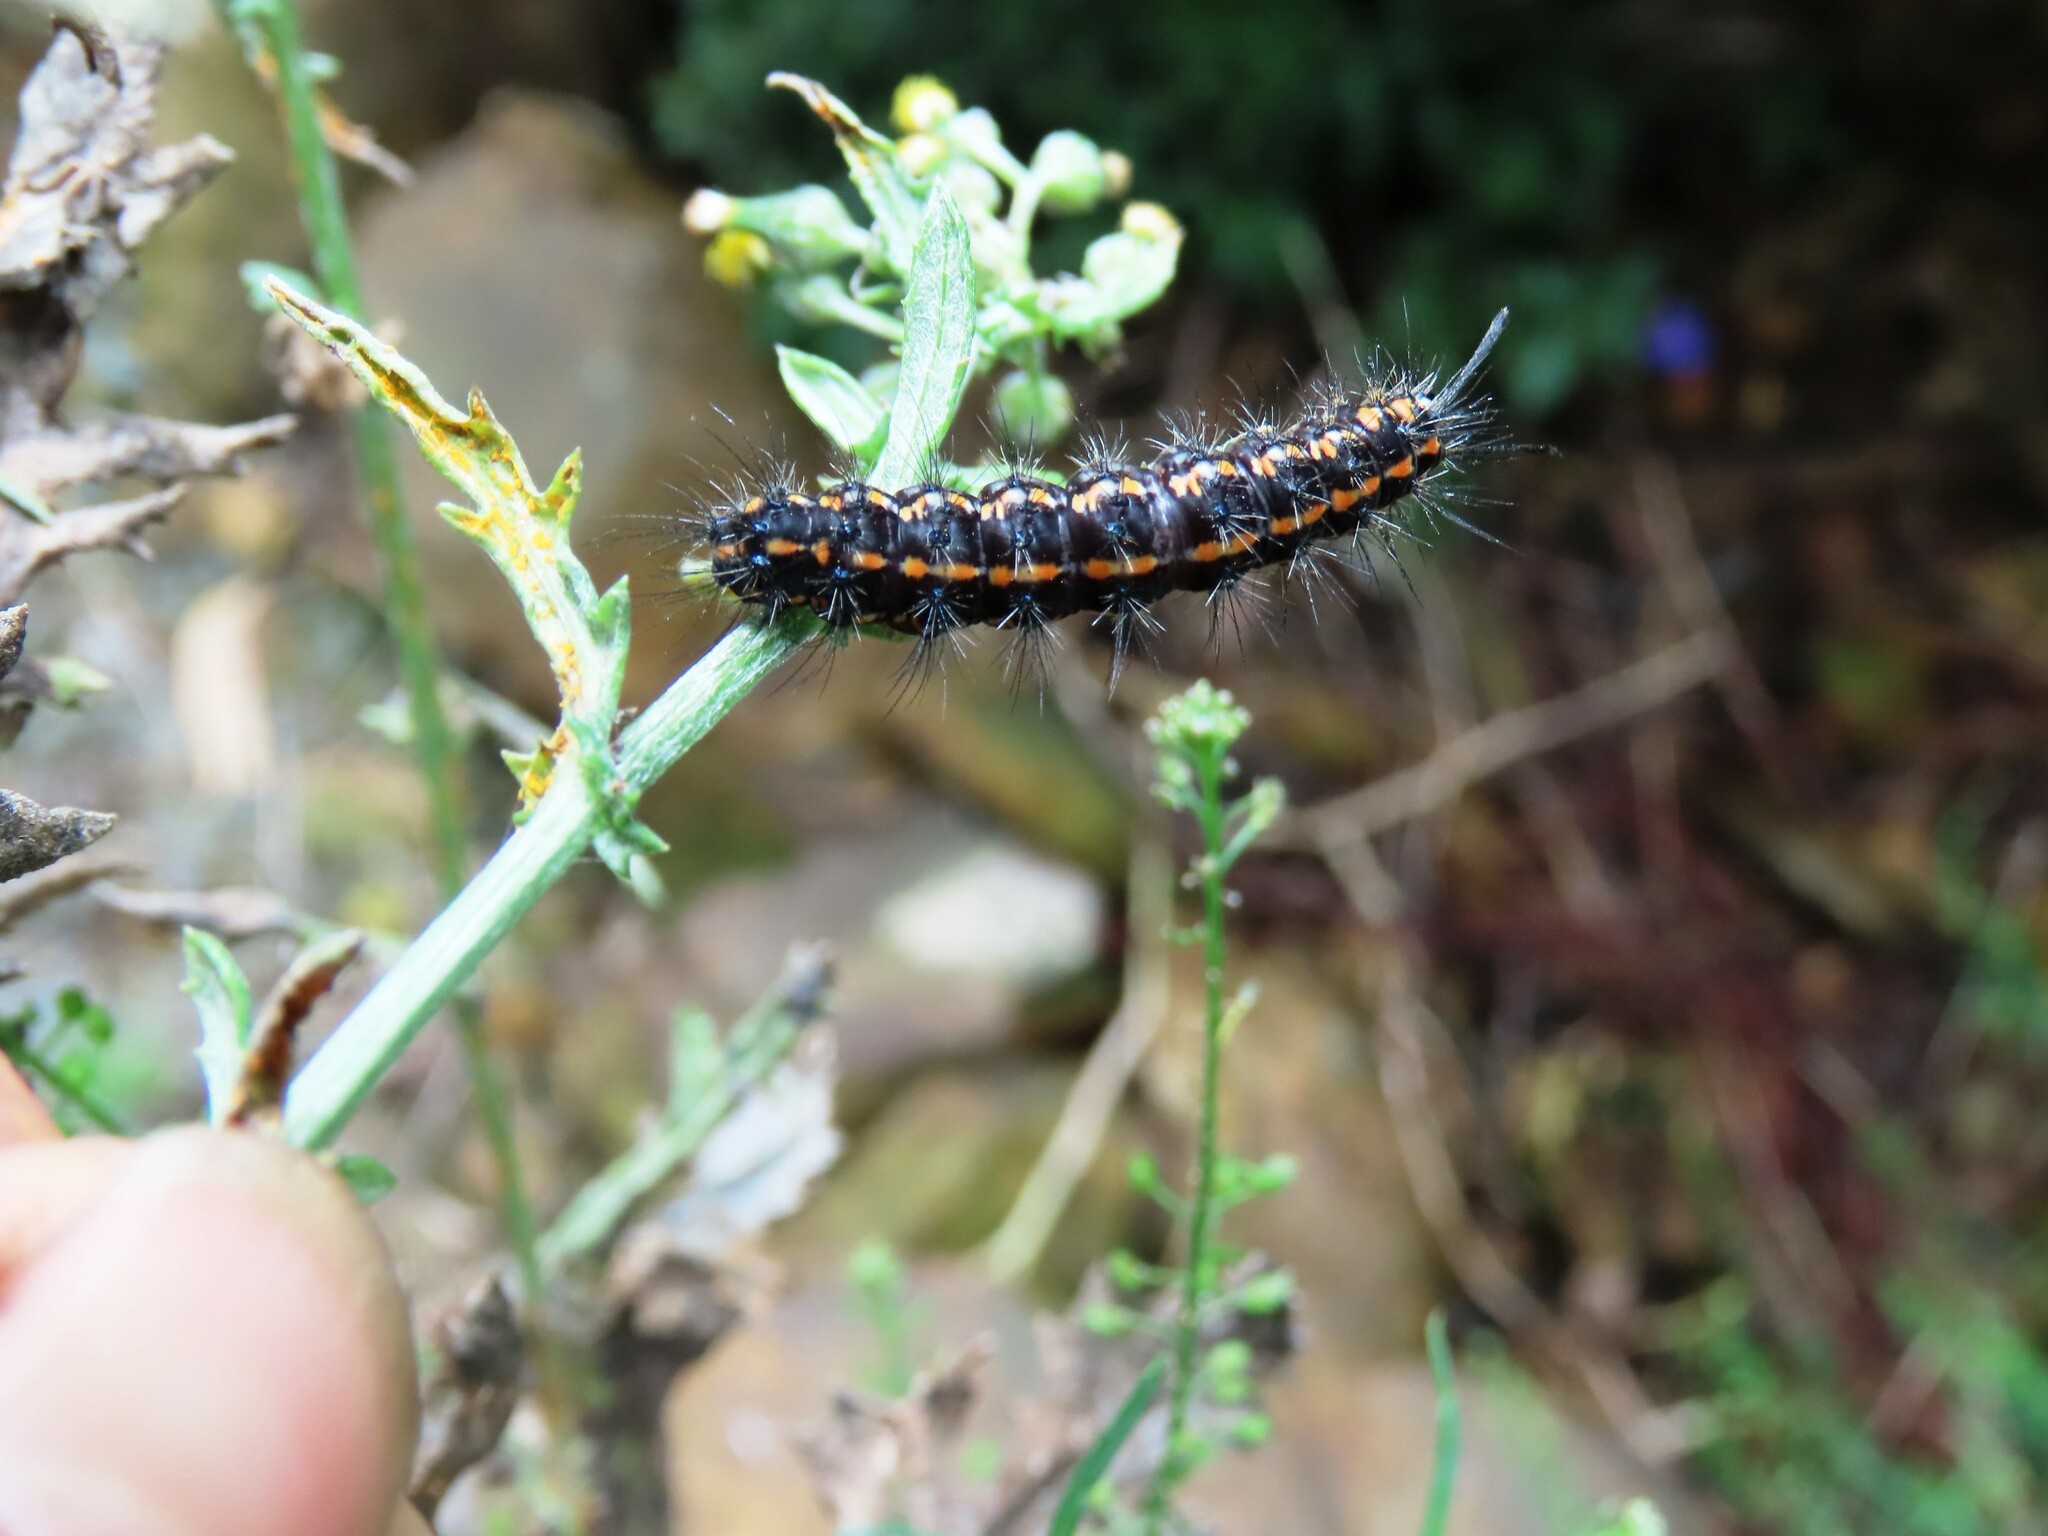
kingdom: Animalia
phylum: Arthropoda
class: Insecta
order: Lepidoptera
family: Erebidae
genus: Nyctemera
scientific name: Nyctemera amicus
